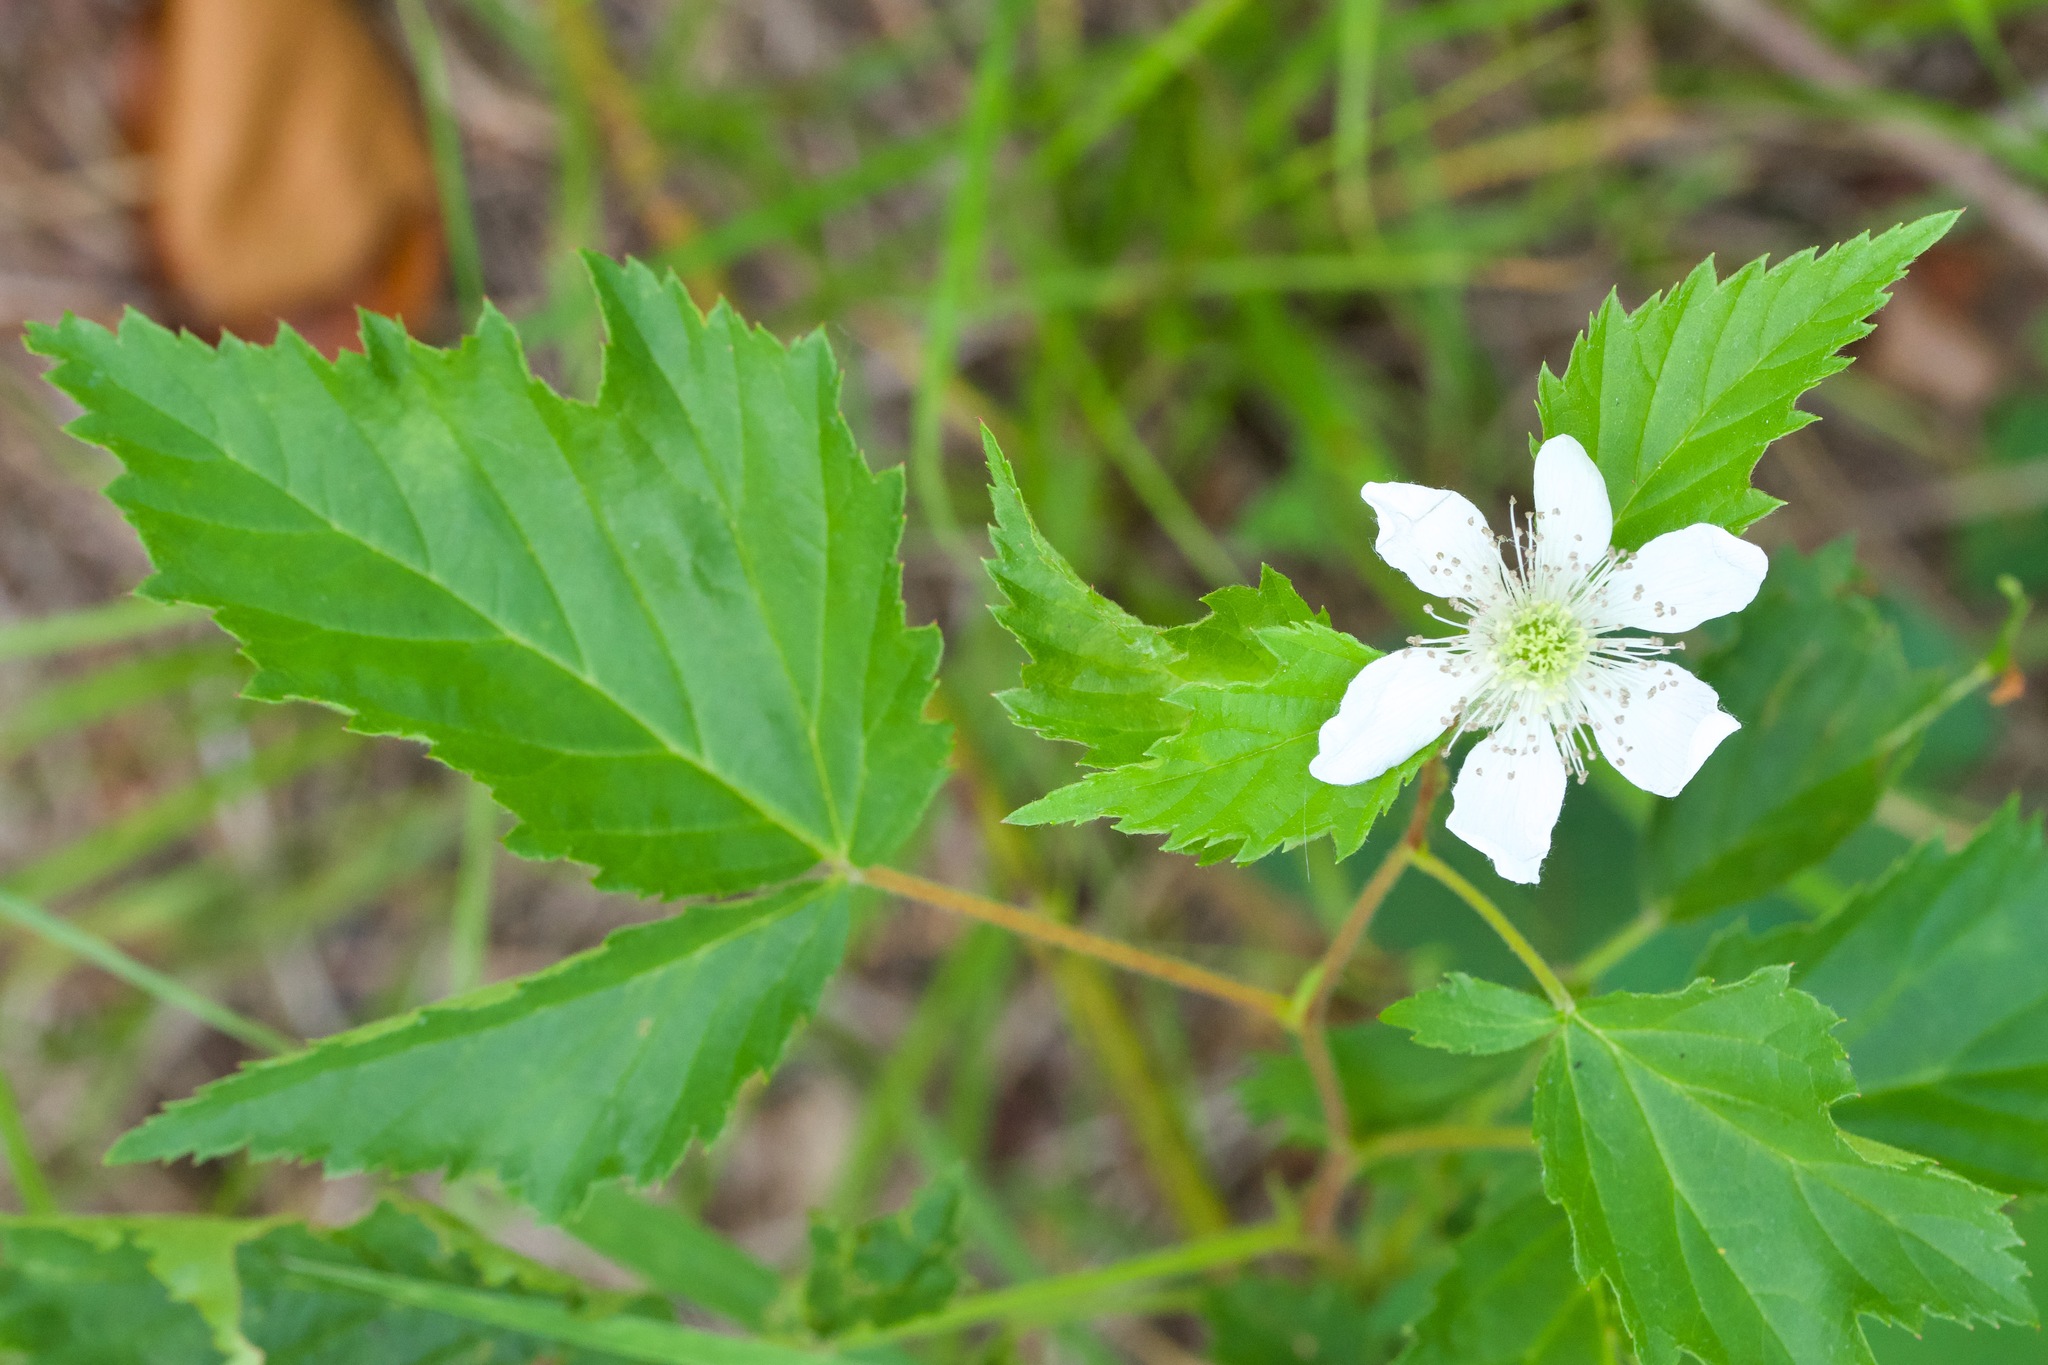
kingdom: Plantae
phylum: Tracheophyta
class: Magnoliopsida
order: Rosales
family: Rosaceae
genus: Rubus
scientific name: Rubus flagellaris
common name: American dewberry
